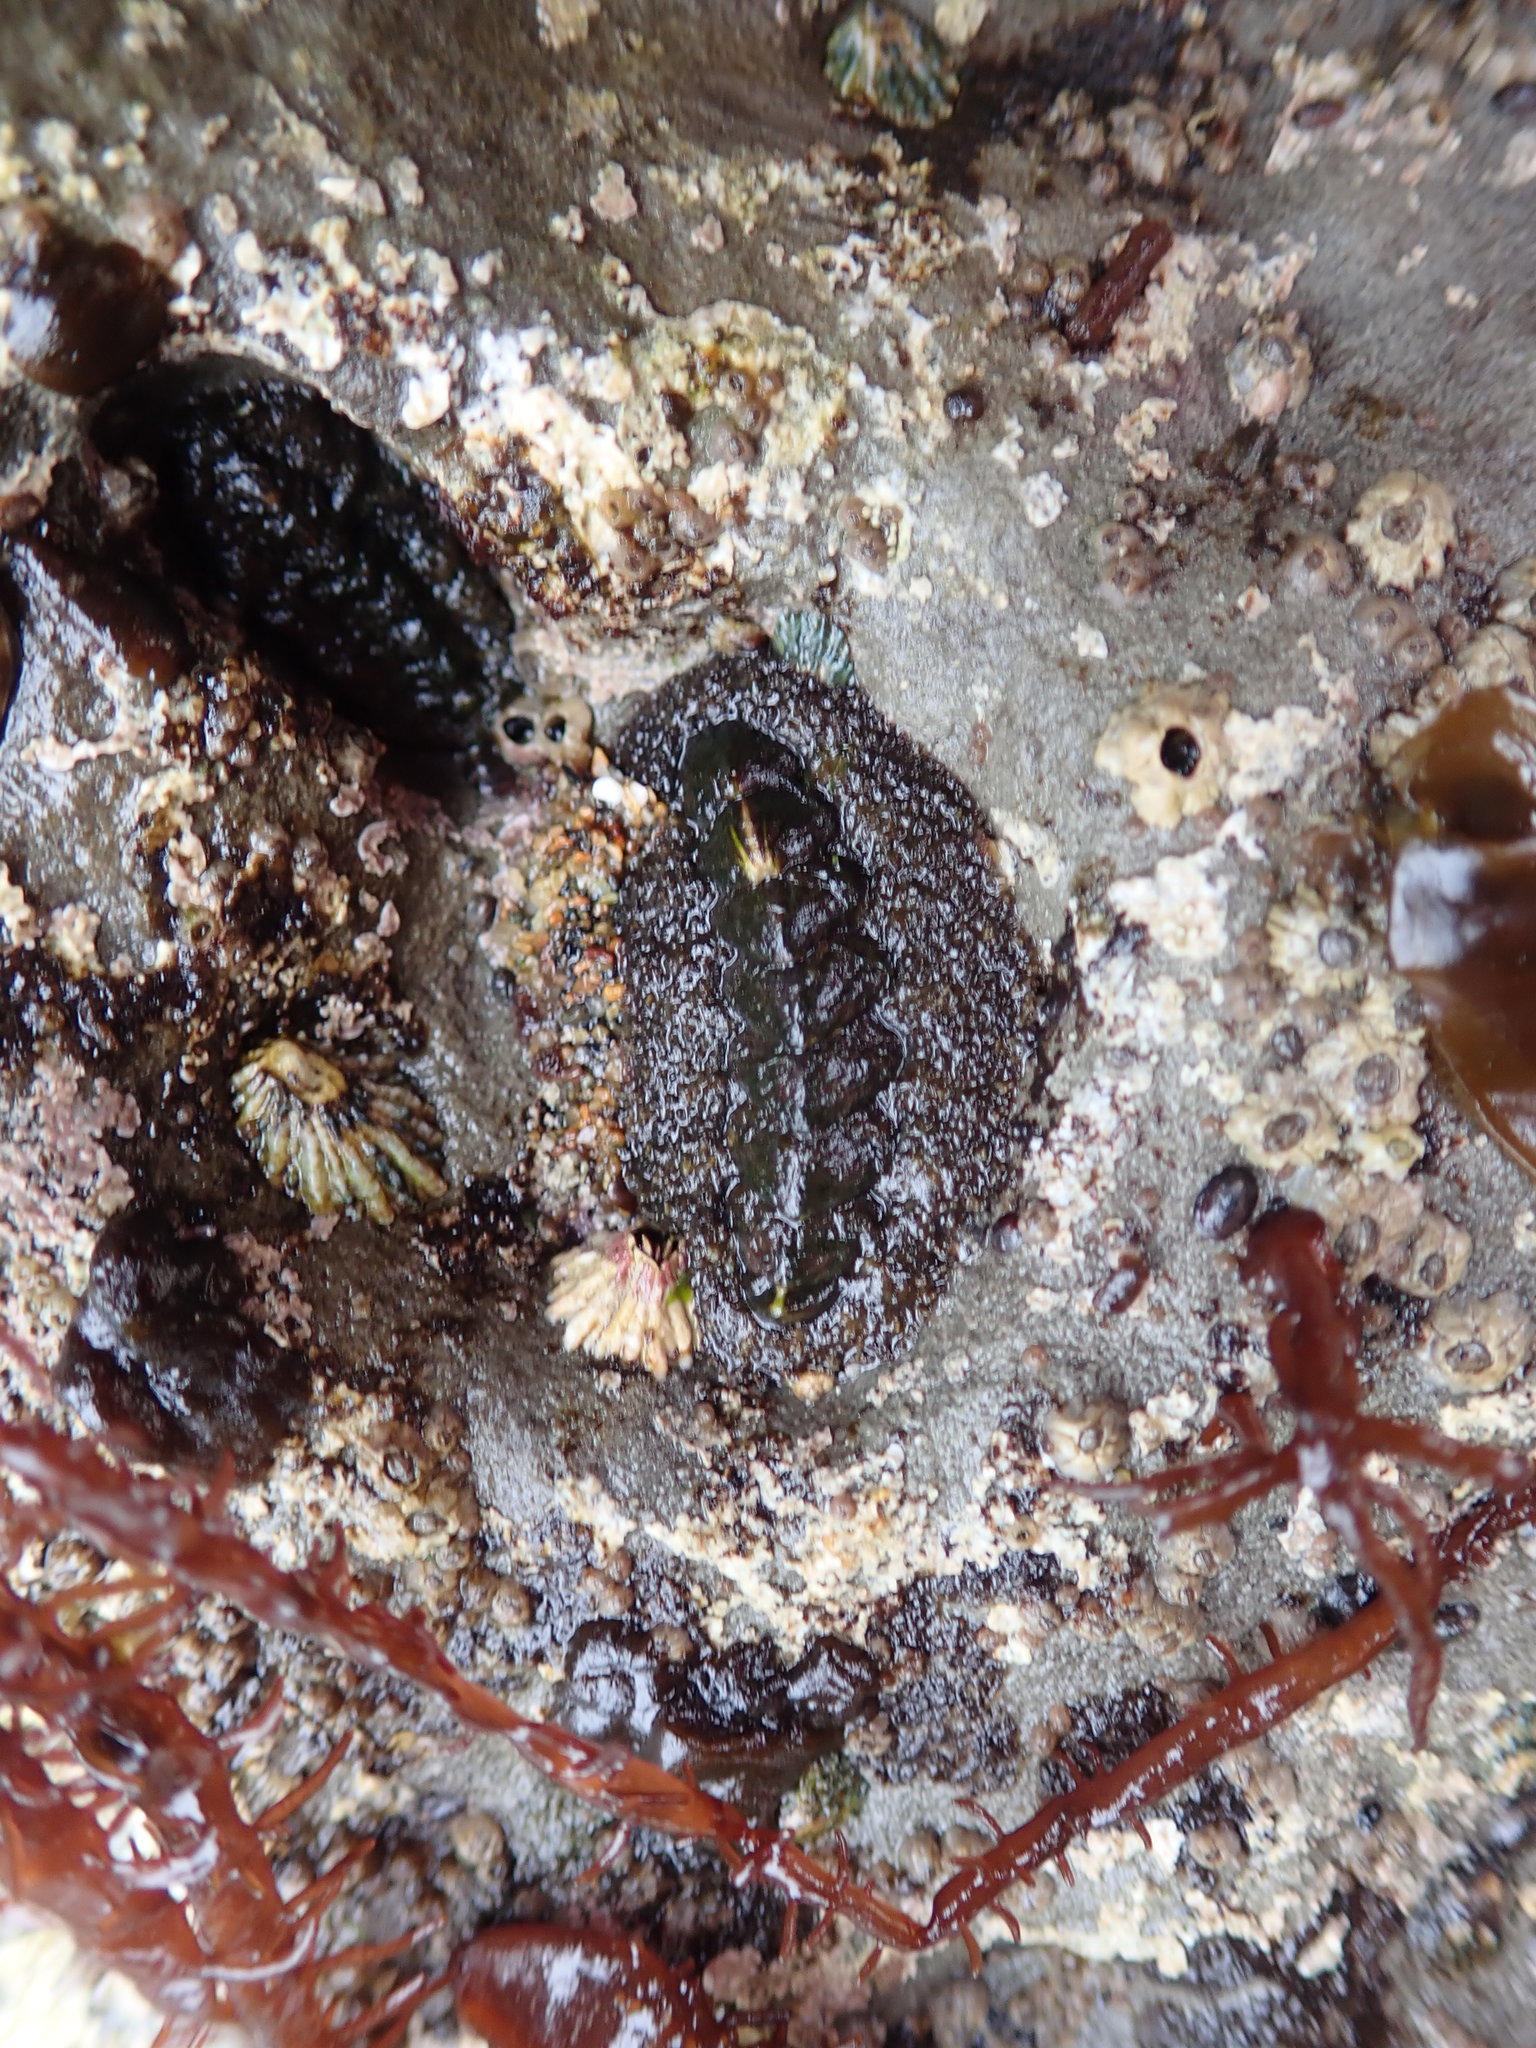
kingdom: Animalia
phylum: Mollusca
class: Polyplacophora
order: Chitonida
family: Tonicellidae
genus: Nuttallina
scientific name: Nuttallina californica
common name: California nuttall chiton
